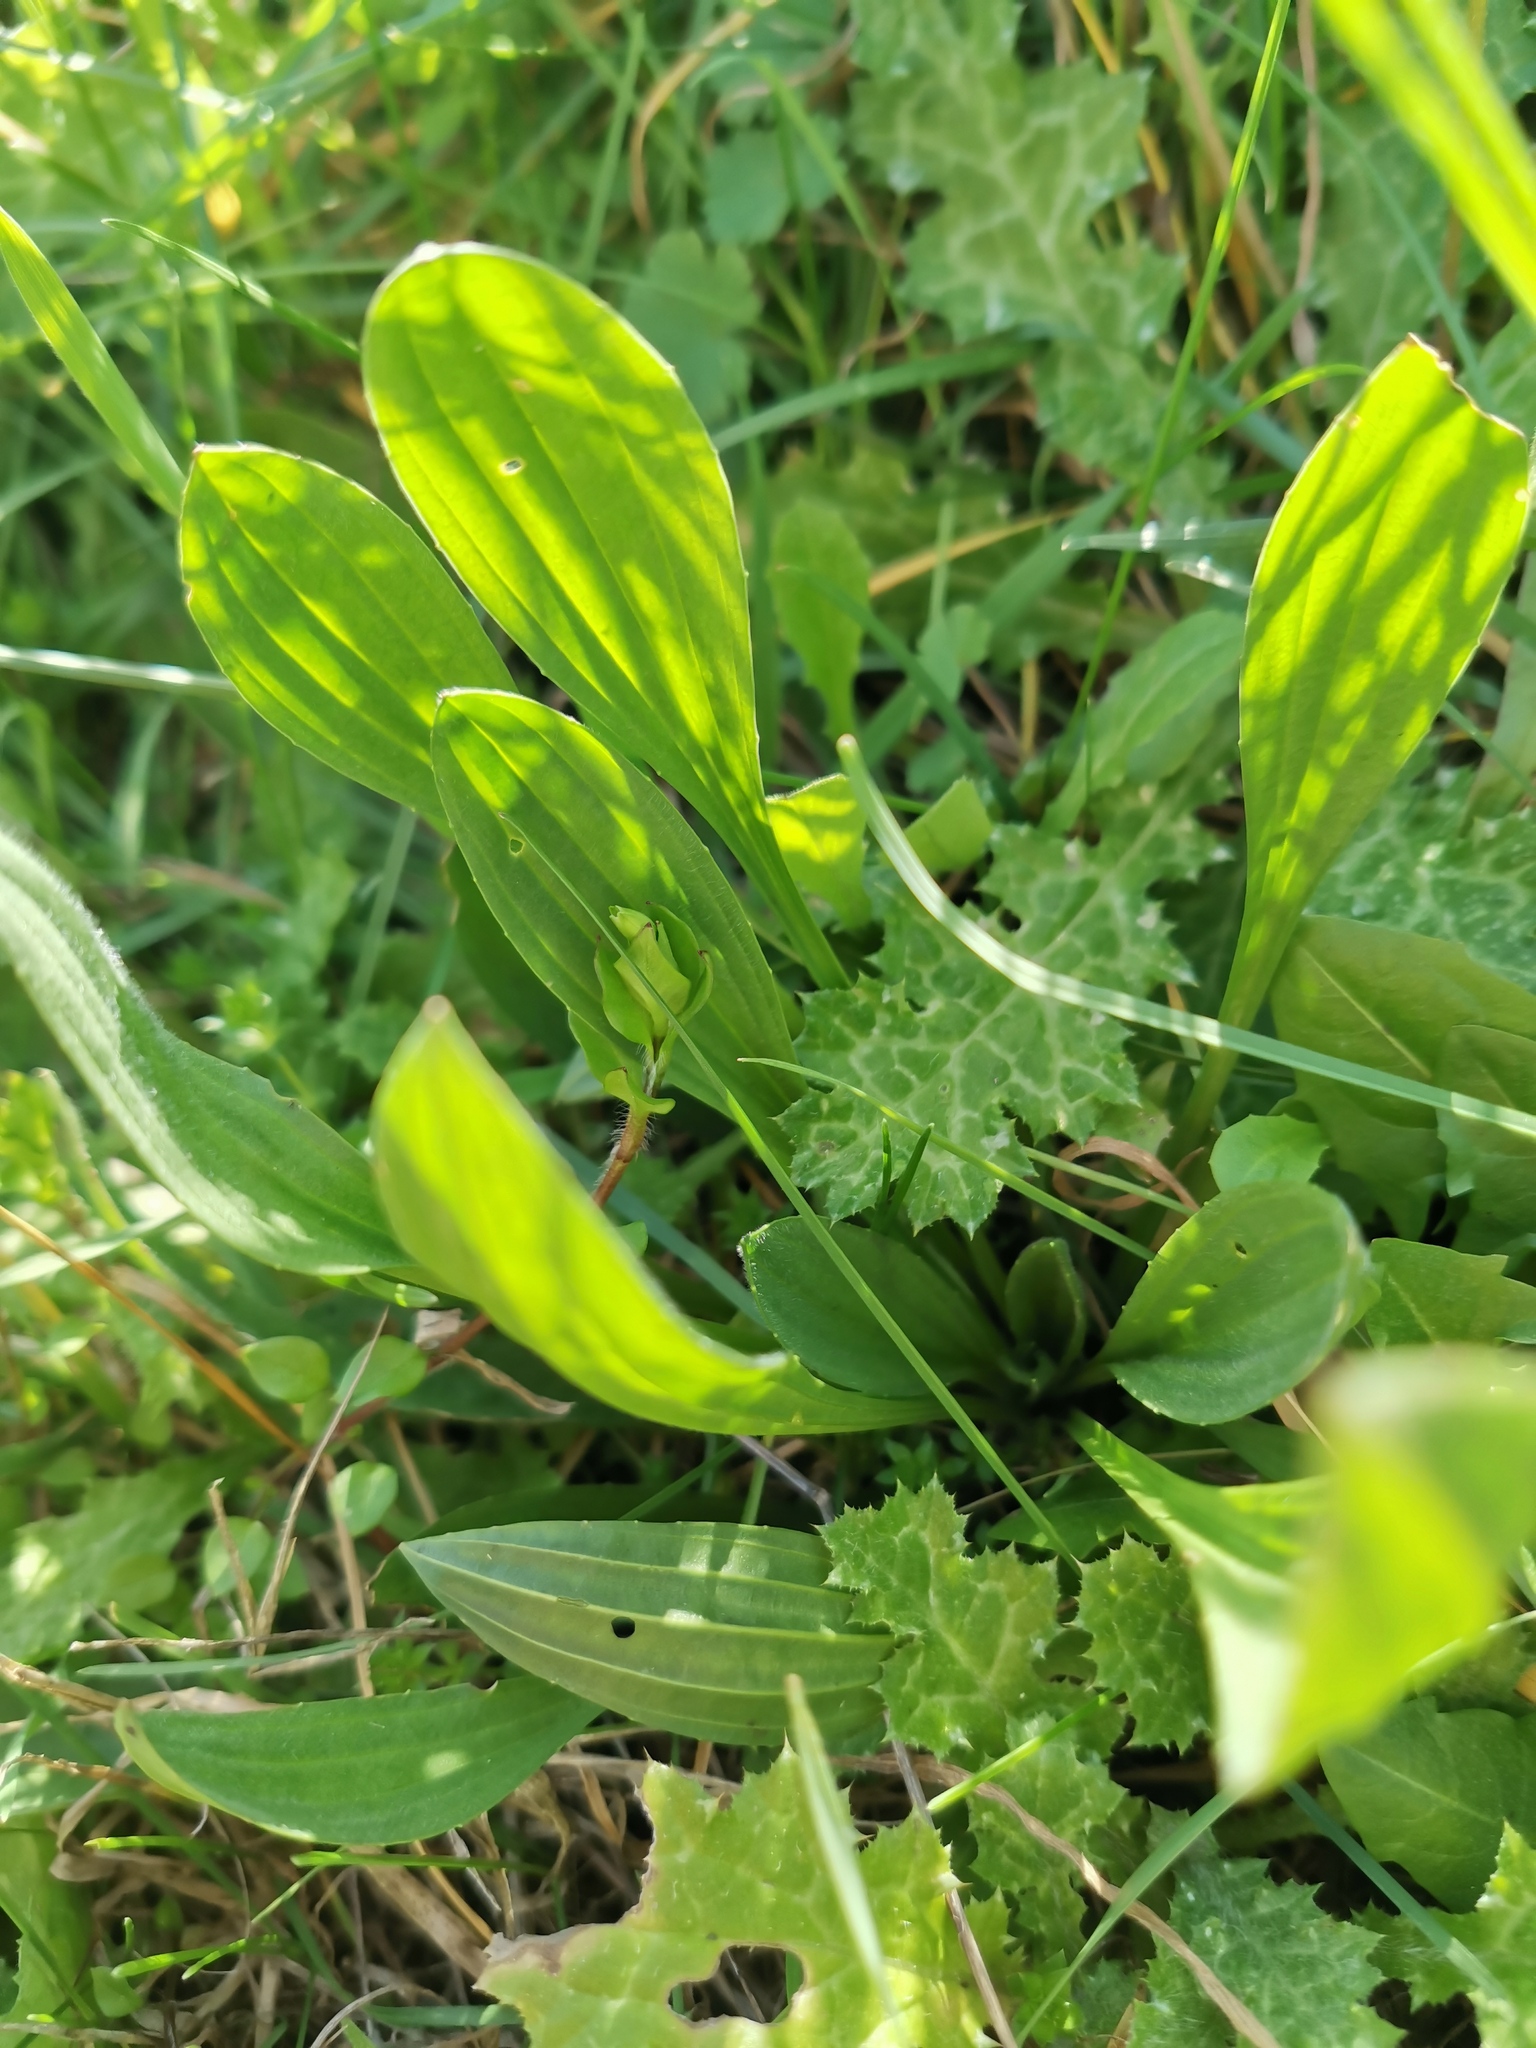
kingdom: Plantae
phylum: Tracheophyta
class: Magnoliopsida
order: Lamiales
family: Plantaginaceae
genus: Plantago
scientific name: Plantago lanceolata
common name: Ribwort plantain
